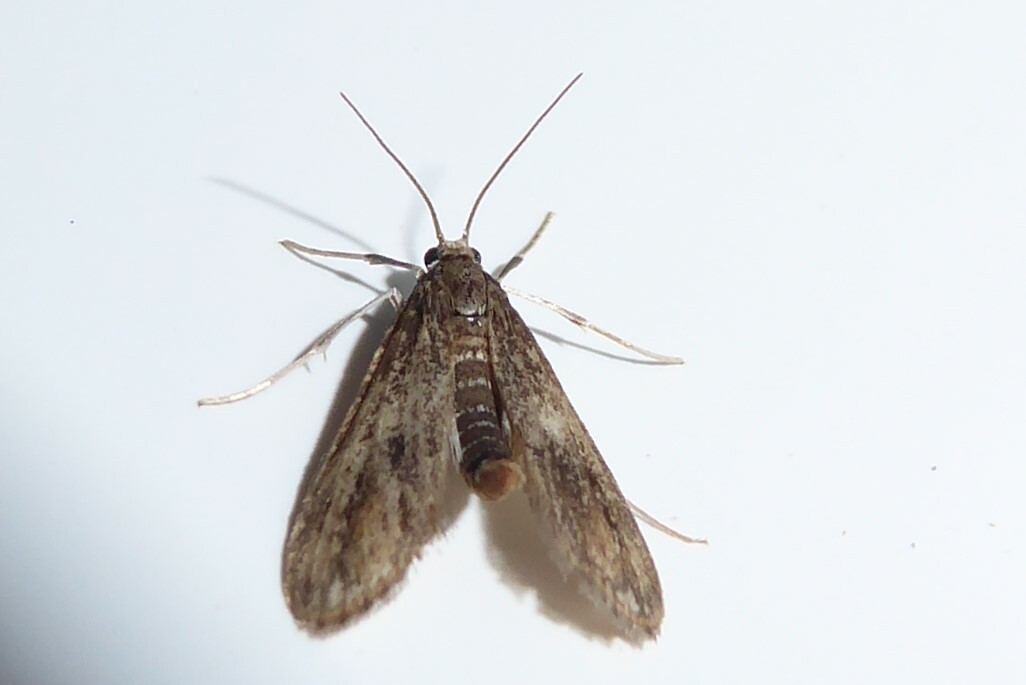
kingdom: Animalia
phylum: Arthropoda
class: Insecta
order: Lepidoptera
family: Crambidae
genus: Hygraula
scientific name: Hygraula nitens
